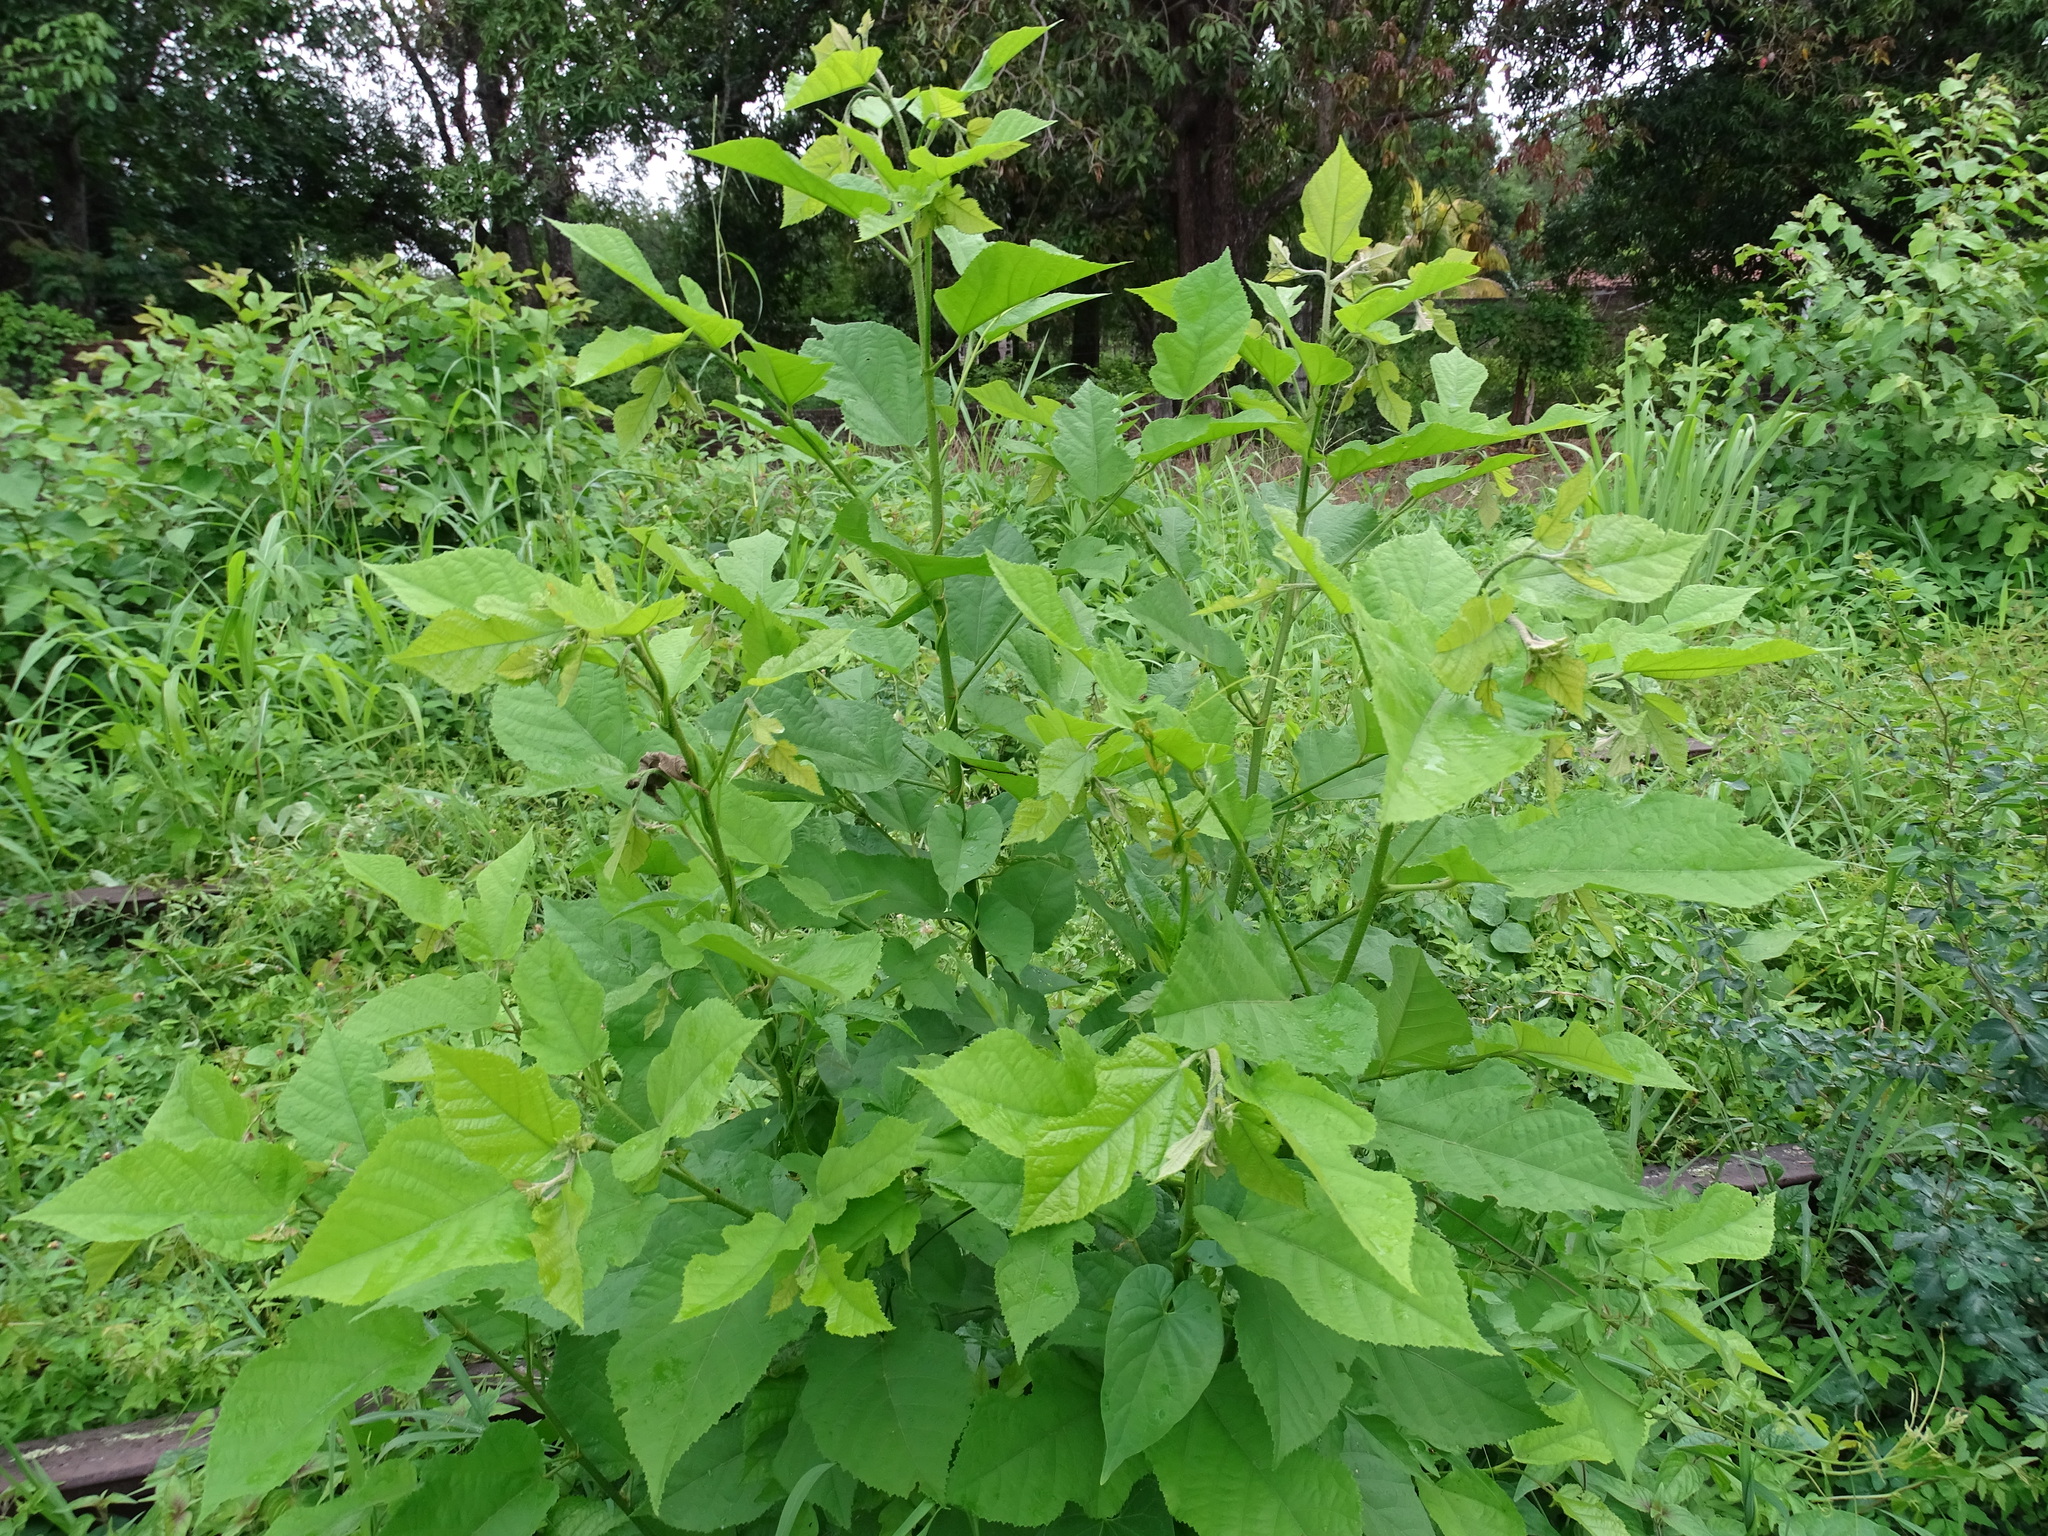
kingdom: Plantae
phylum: Tracheophyta
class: Magnoliopsida
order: Rosales
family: Moraceae
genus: Maclura
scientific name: Maclura tinctoria
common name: Old fustic
